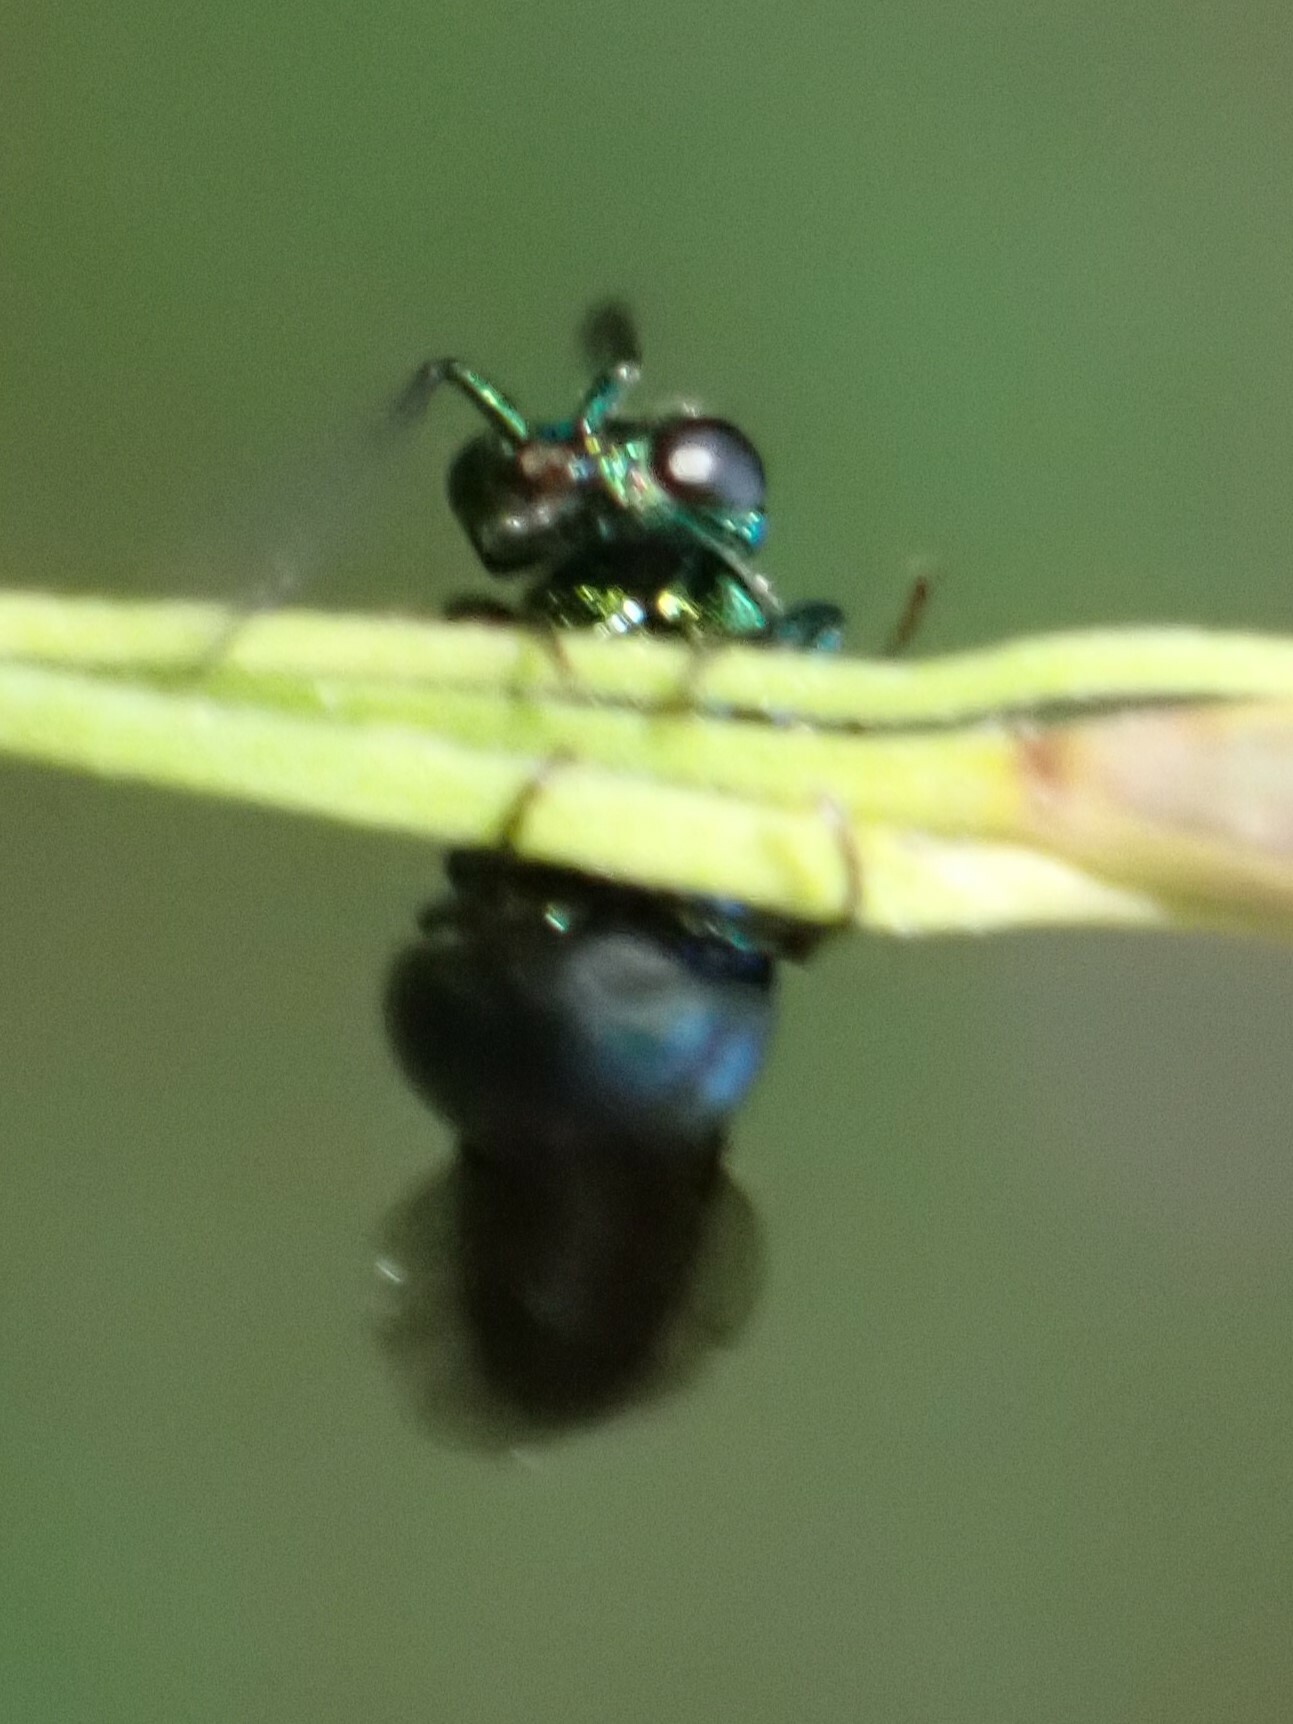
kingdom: Animalia
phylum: Arthropoda
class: Insecta
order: Hymenoptera
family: Chrysididae
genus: Elampus
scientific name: Elampus
